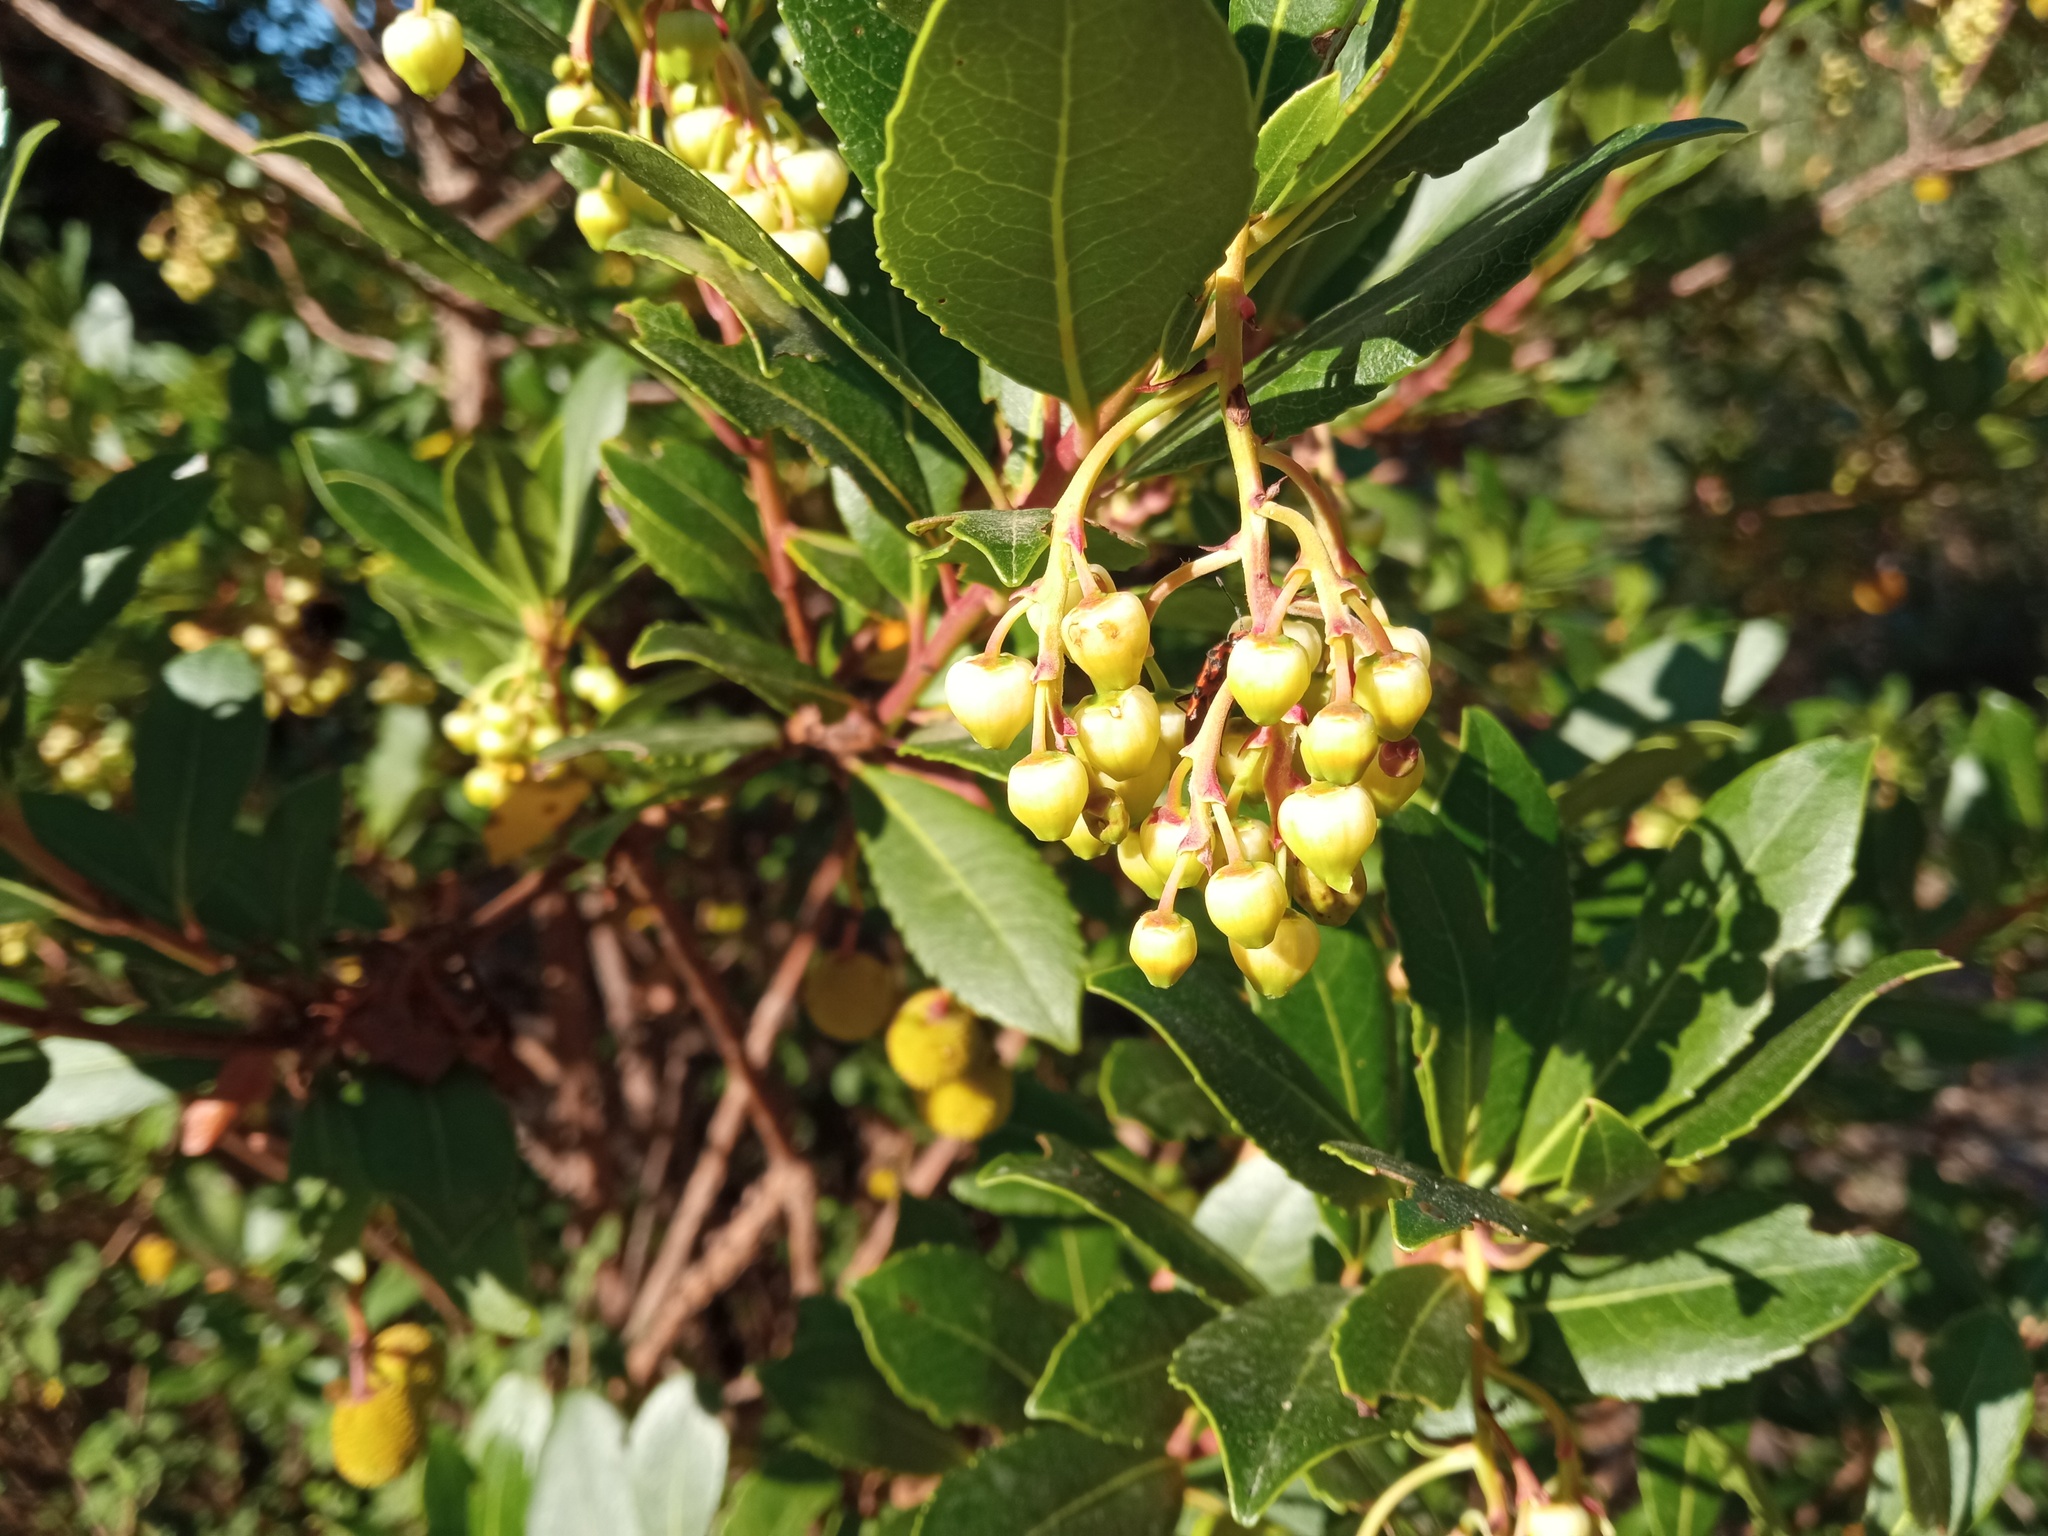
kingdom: Plantae
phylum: Tracheophyta
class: Magnoliopsida
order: Ericales
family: Ericaceae
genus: Arbutus
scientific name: Arbutus unedo
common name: Strawberry-tree
